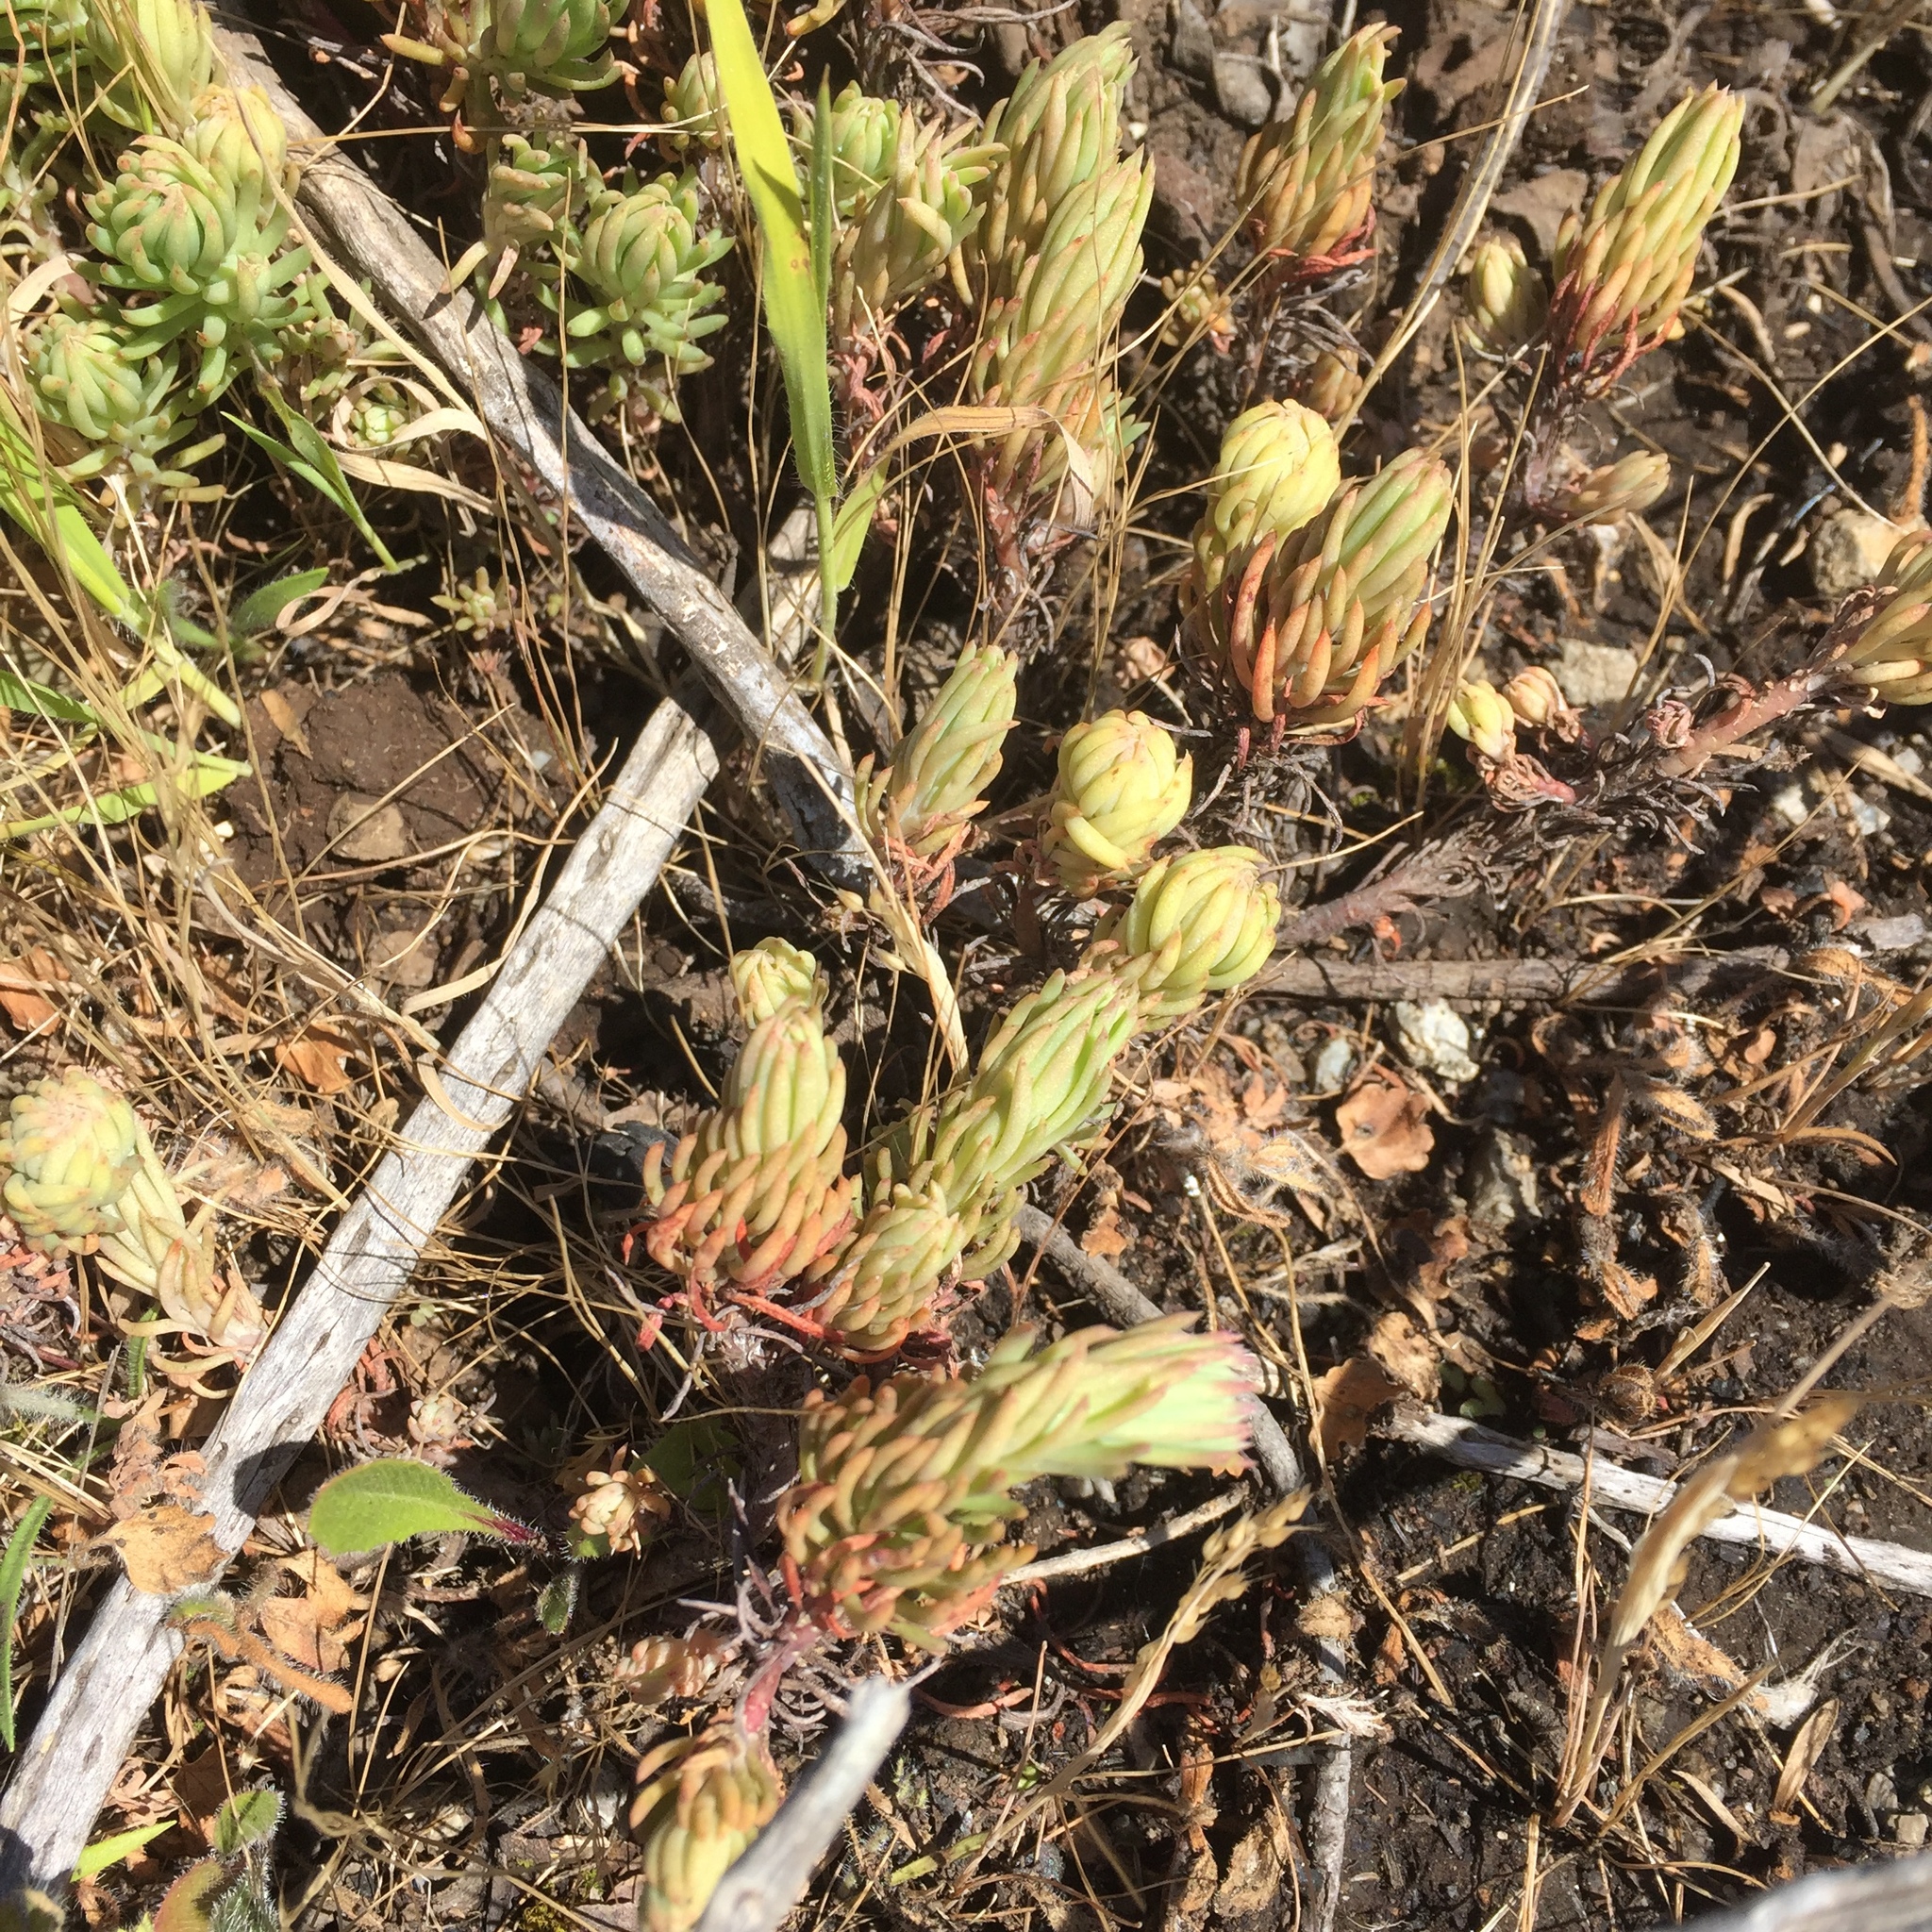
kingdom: Plantae
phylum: Tracheophyta
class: Magnoliopsida
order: Saxifragales
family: Crassulaceae
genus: Petrosedum
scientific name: Petrosedum sediforme
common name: Pale stonecrop
